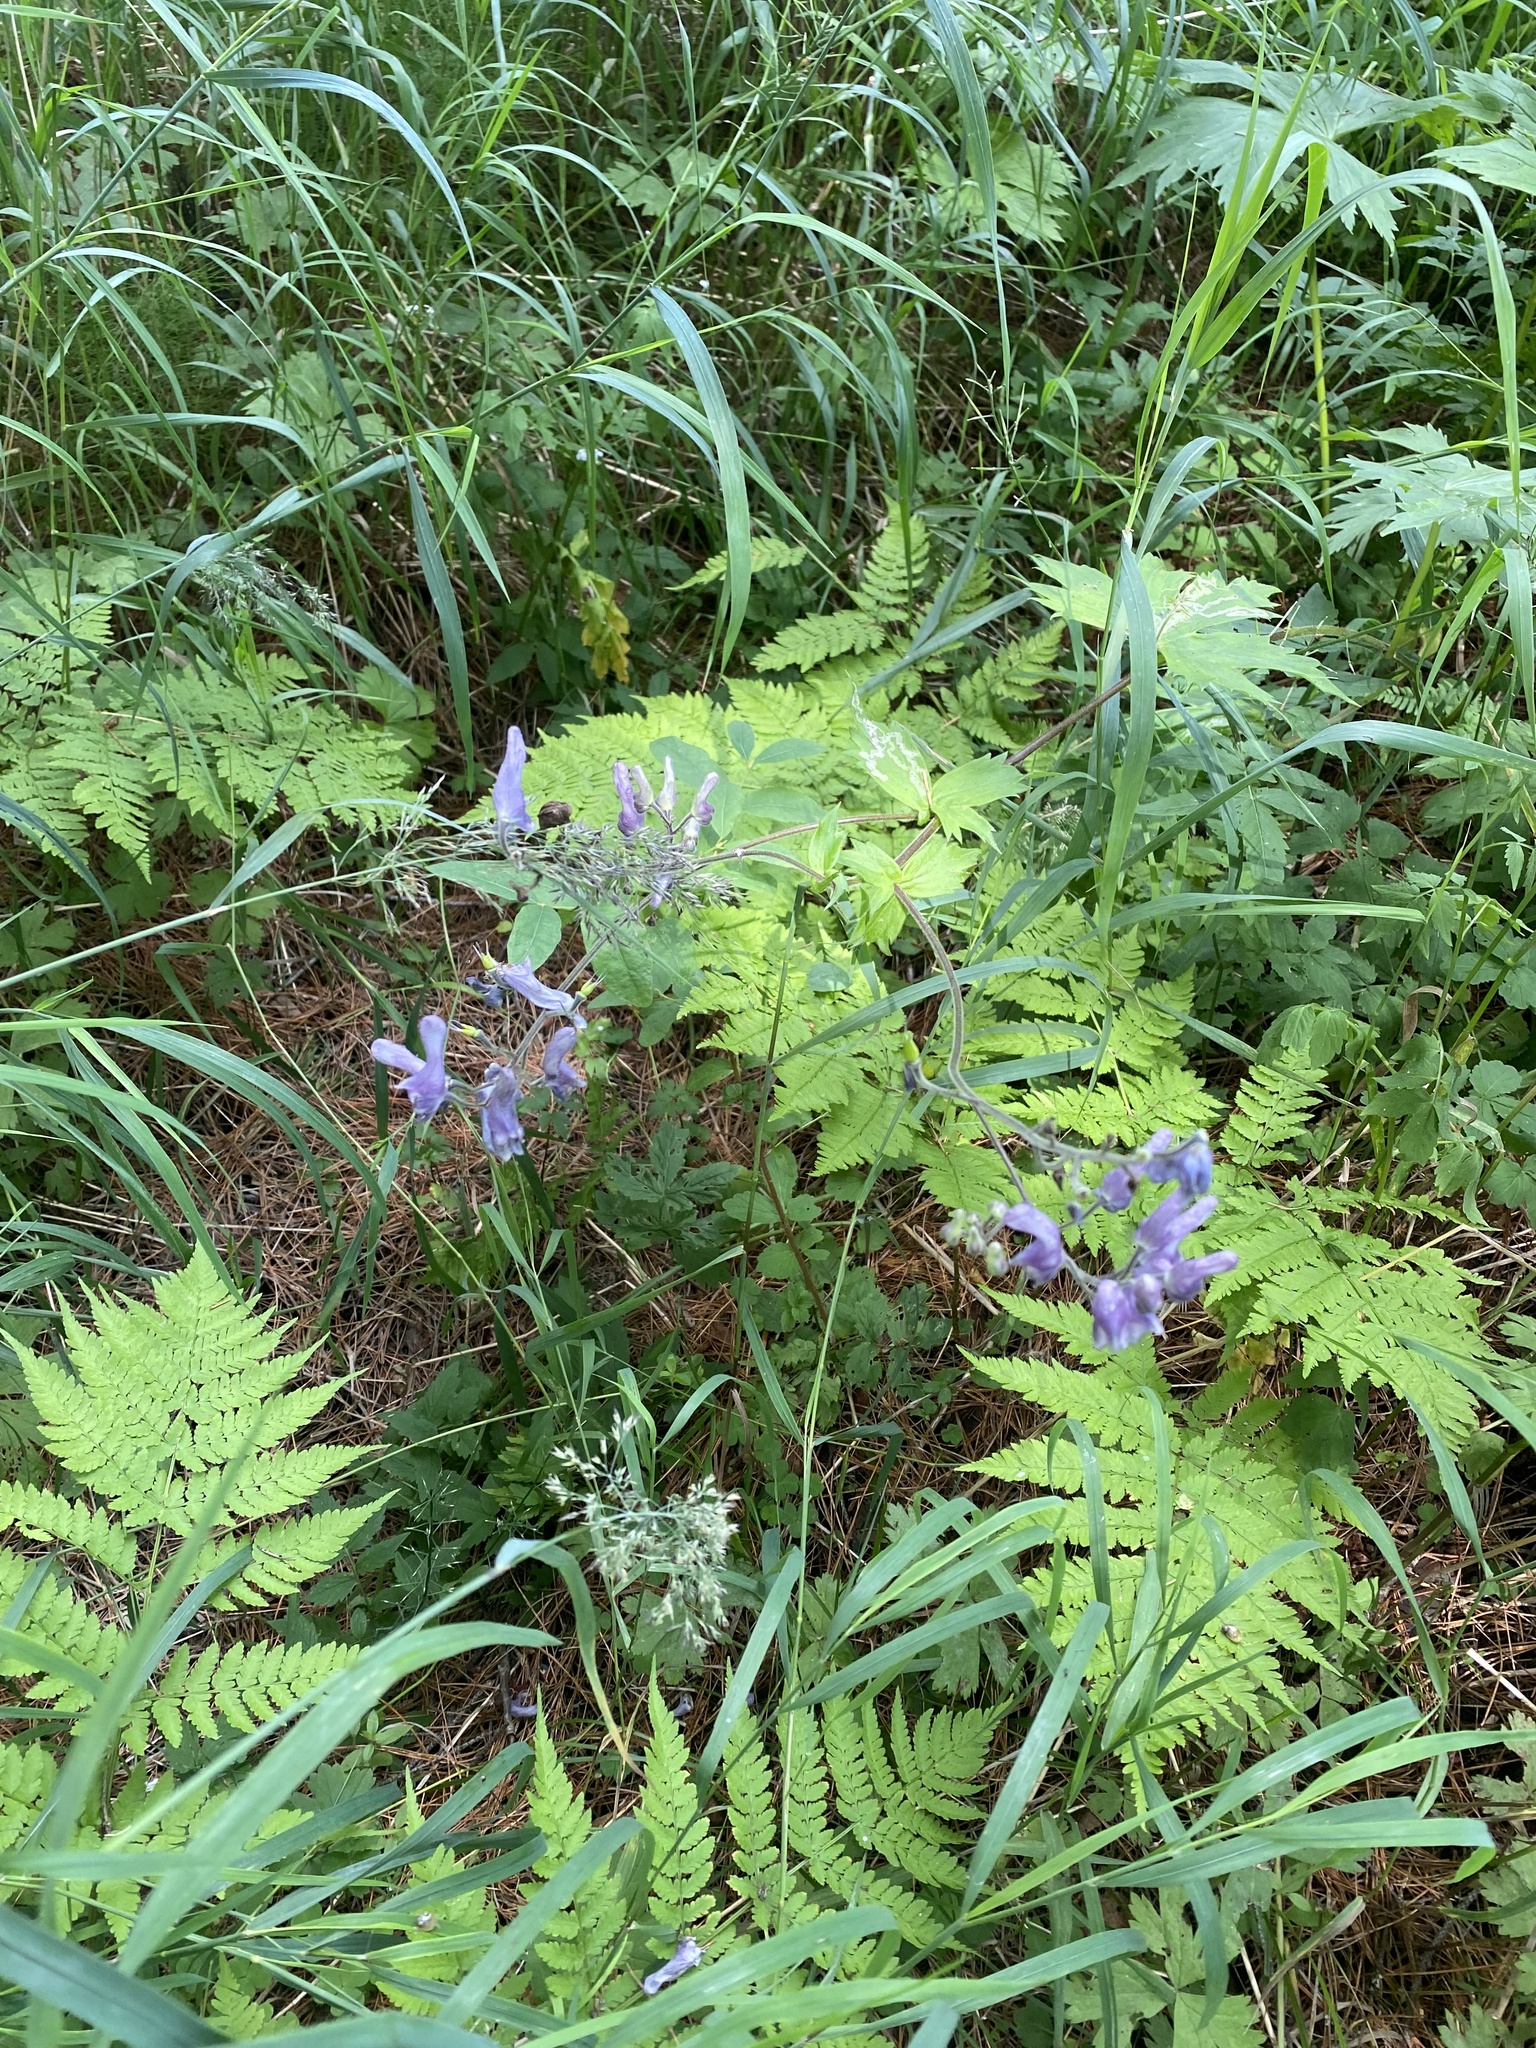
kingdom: Plantae
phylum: Tracheophyta
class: Magnoliopsida
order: Ranunculales
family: Ranunculaceae
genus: Aconitum
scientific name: Aconitum septentrionale
